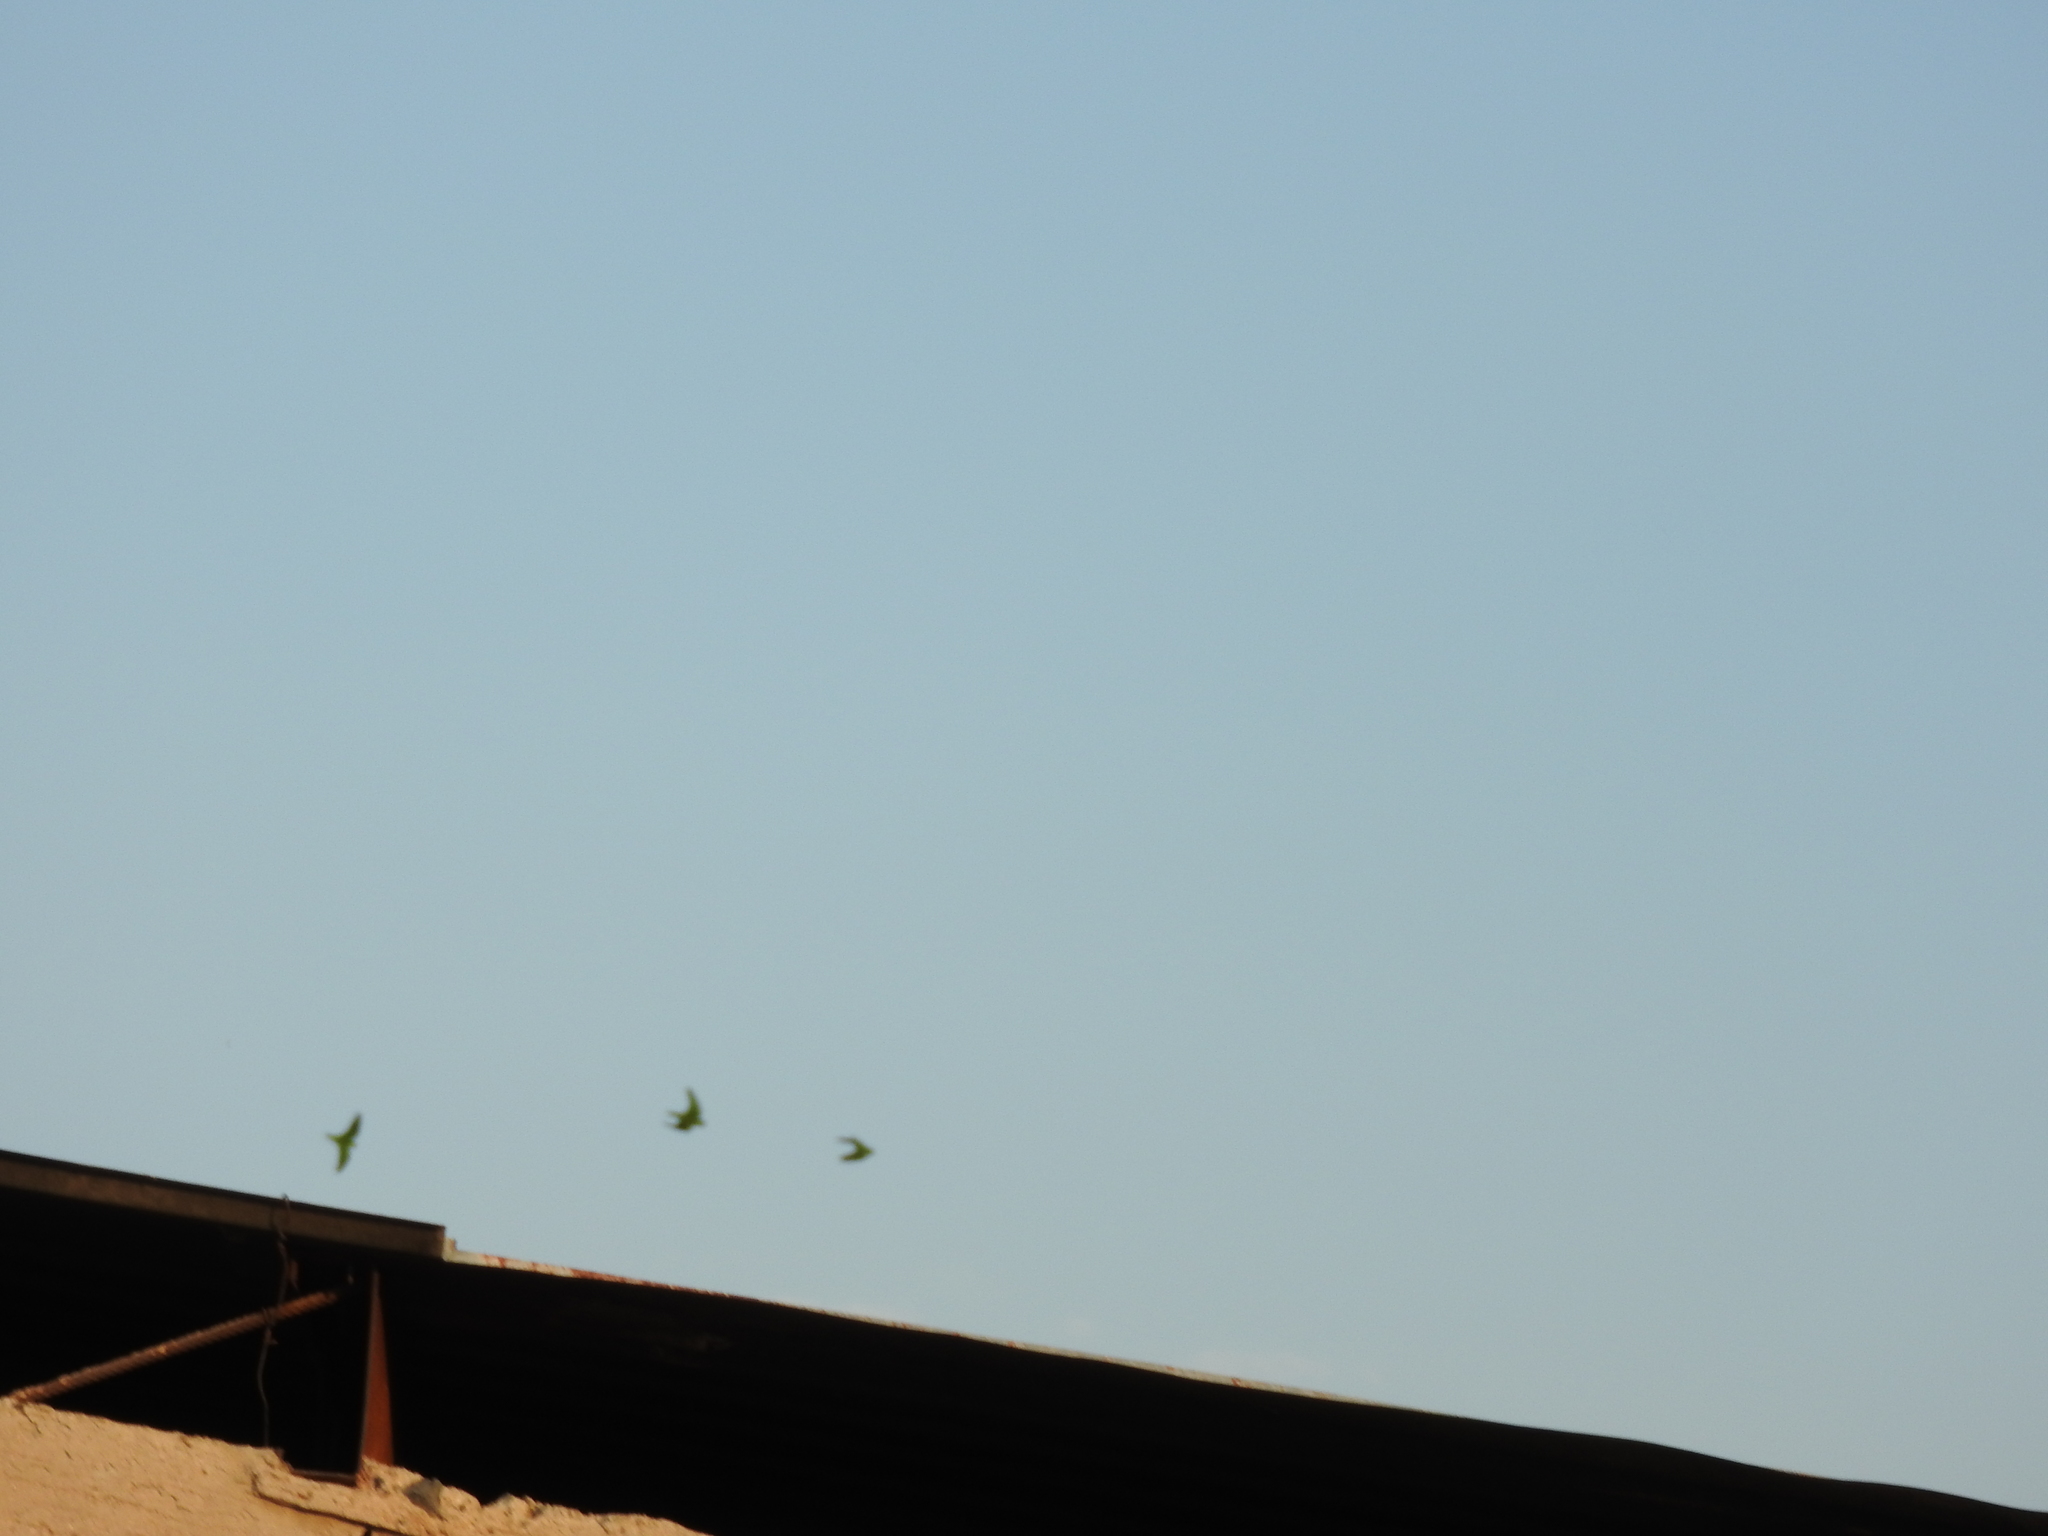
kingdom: Animalia
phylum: Chordata
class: Aves
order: Psittaciformes
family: Psittacidae
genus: Aratinga
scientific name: Aratinga holochlora
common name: Green parakeet
